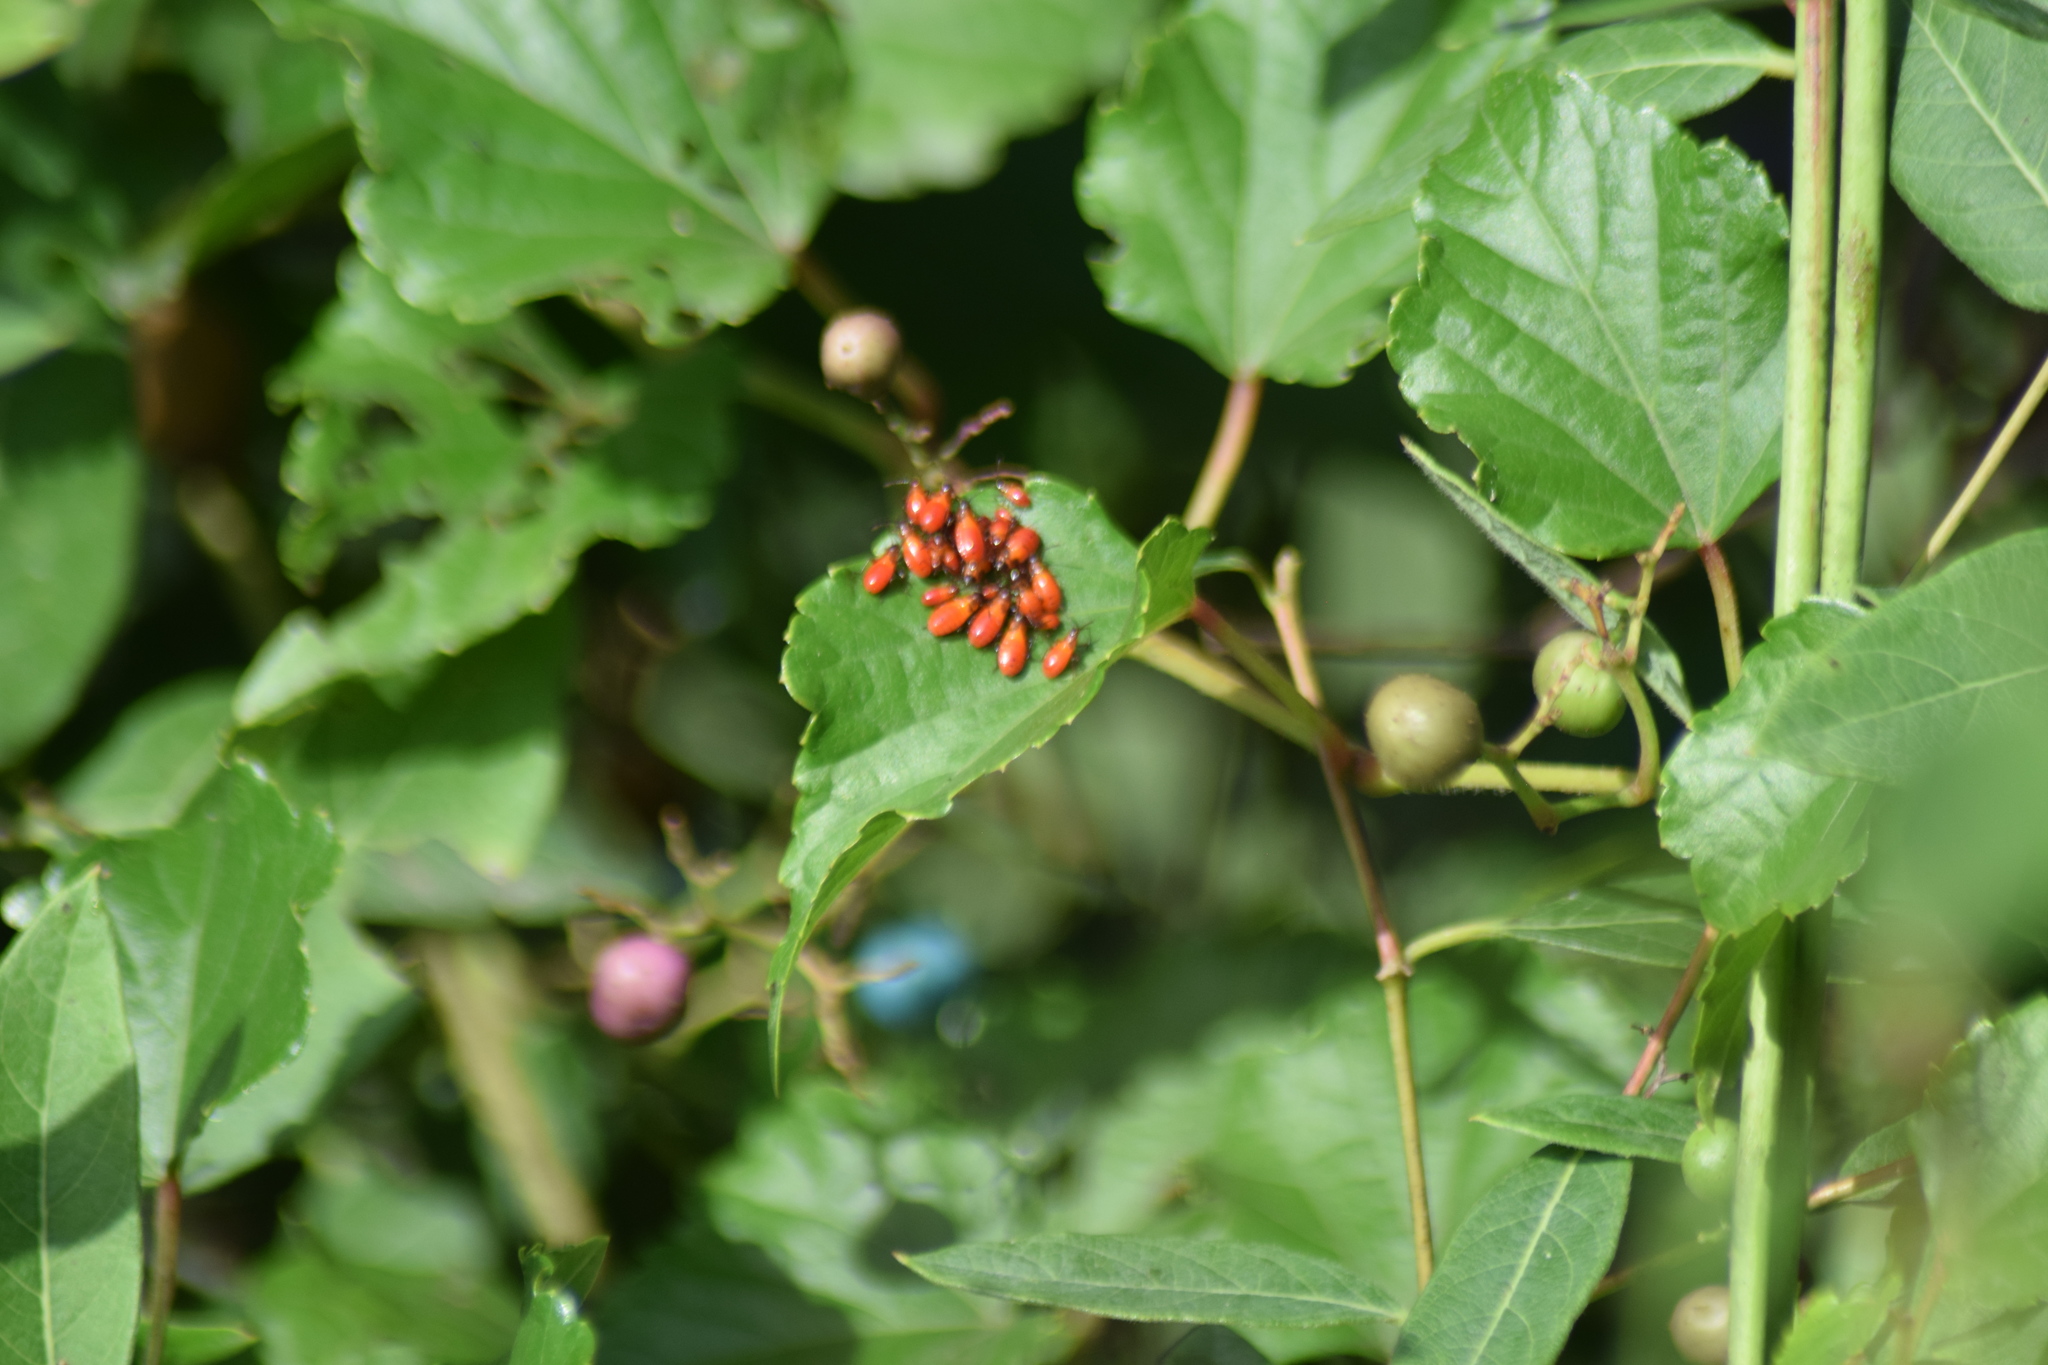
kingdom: Animalia
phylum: Arthropoda
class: Insecta
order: Hemiptera
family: Lygaeidae
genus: Oncopeltus
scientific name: Oncopeltus fasciatus
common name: Large milkweed bug
